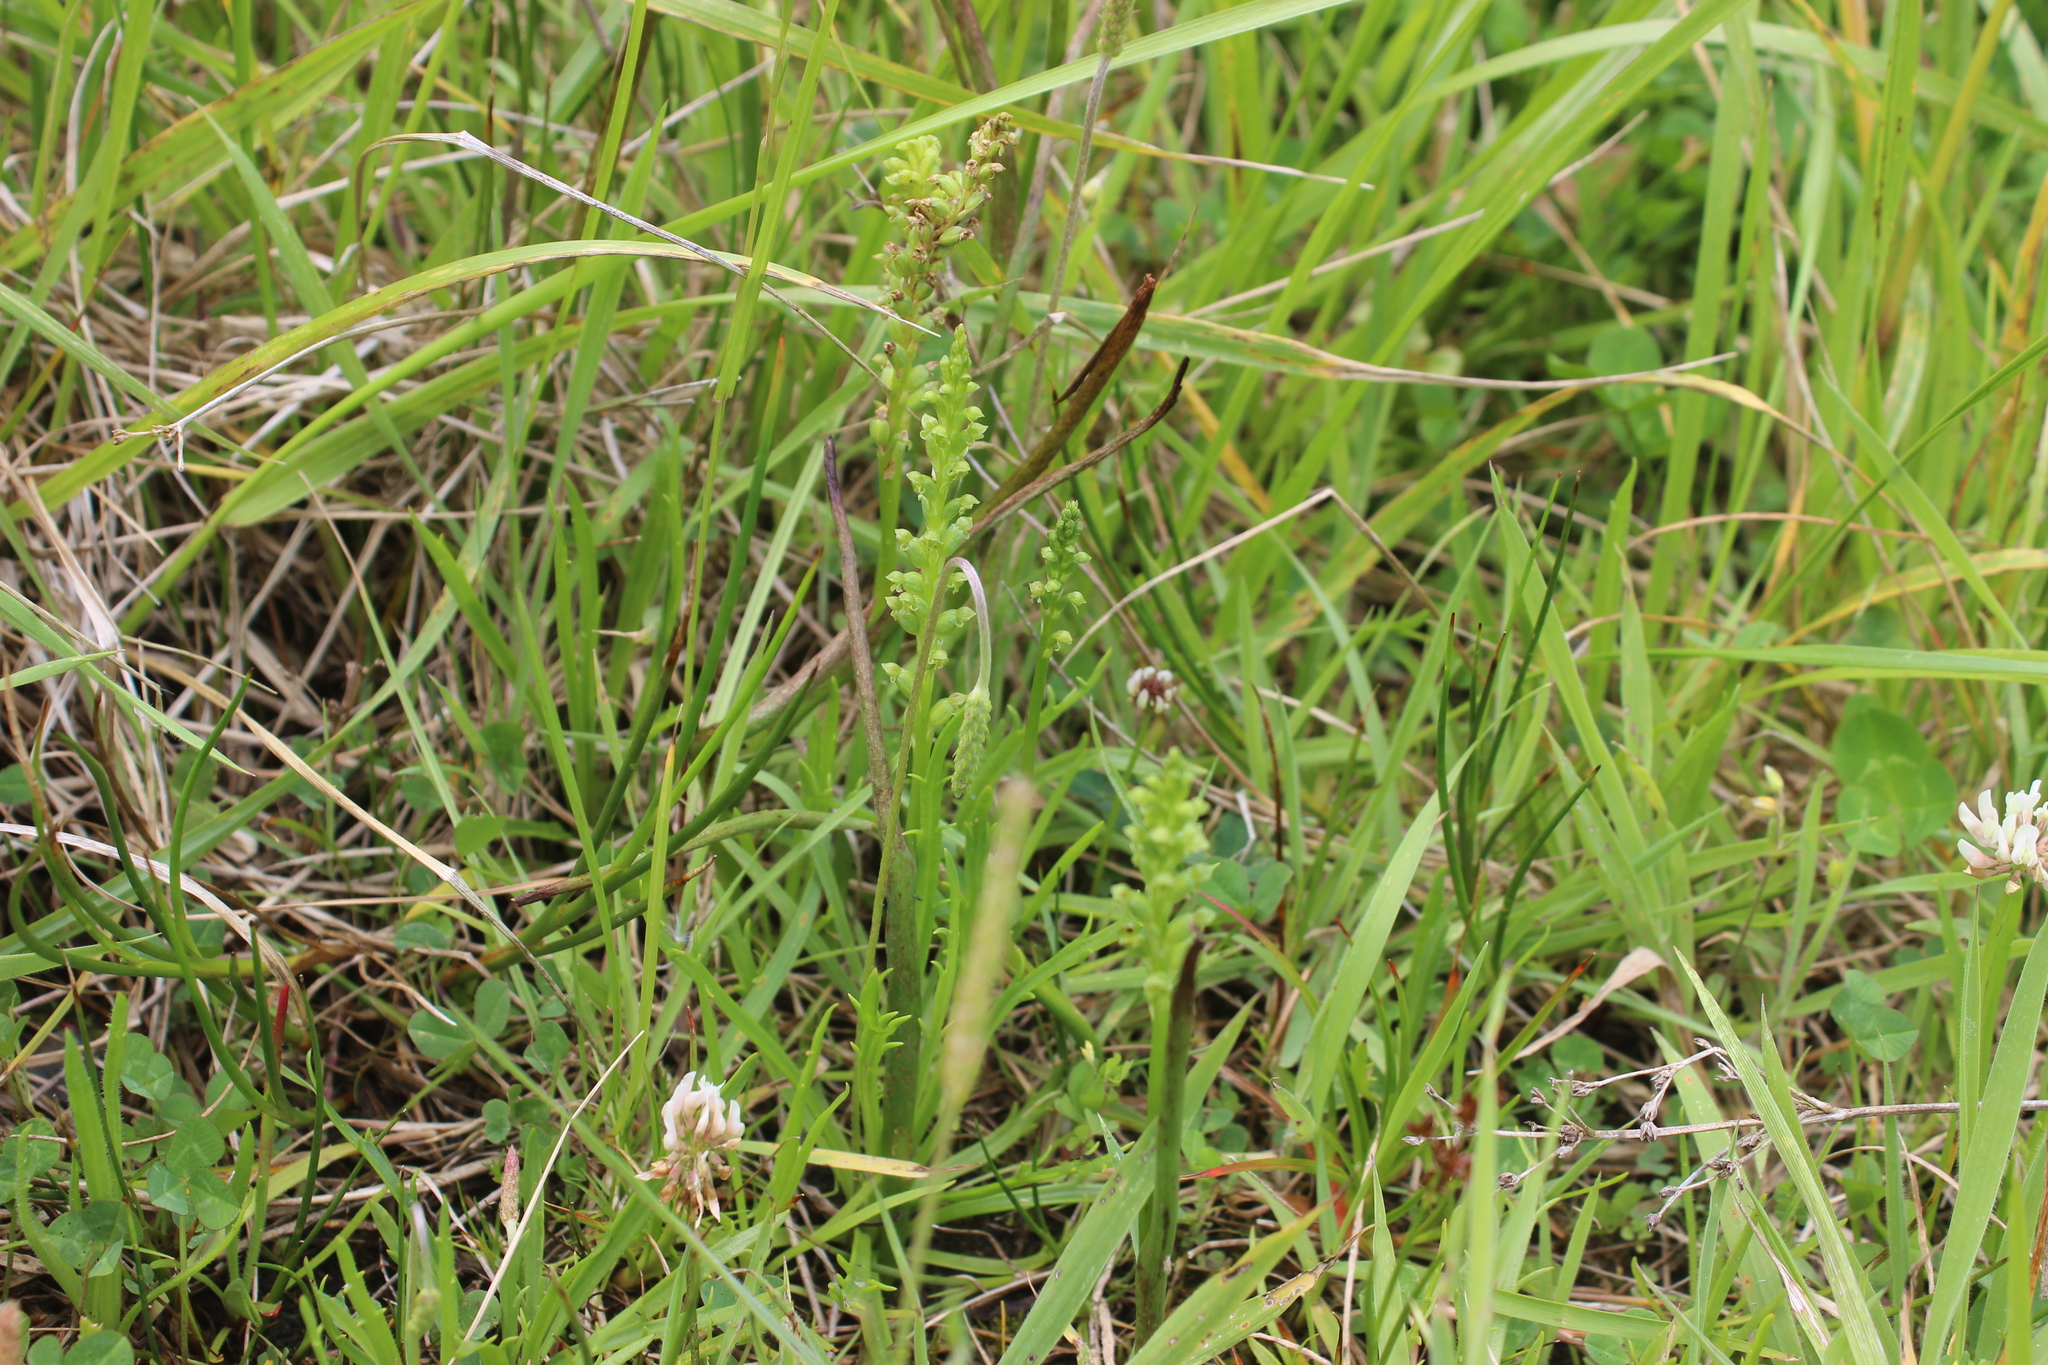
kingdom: Plantae
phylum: Tracheophyta
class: Liliopsida
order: Asparagales
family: Orchidaceae
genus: Microtis
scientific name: Microtis unifolia
